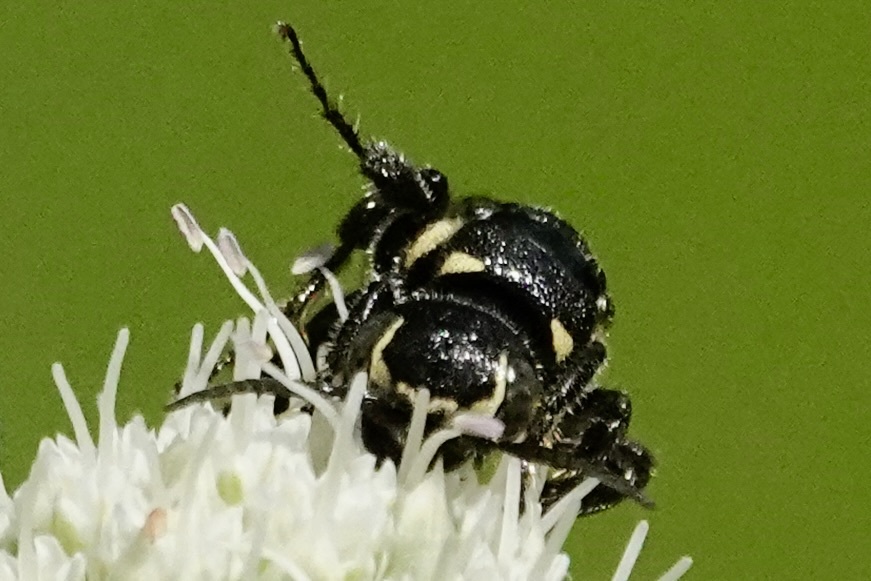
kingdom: Animalia
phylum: Arthropoda
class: Insecta
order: Hymenoptera
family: Tiphiidae
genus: Myzinum
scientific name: Myzinum obscurum
